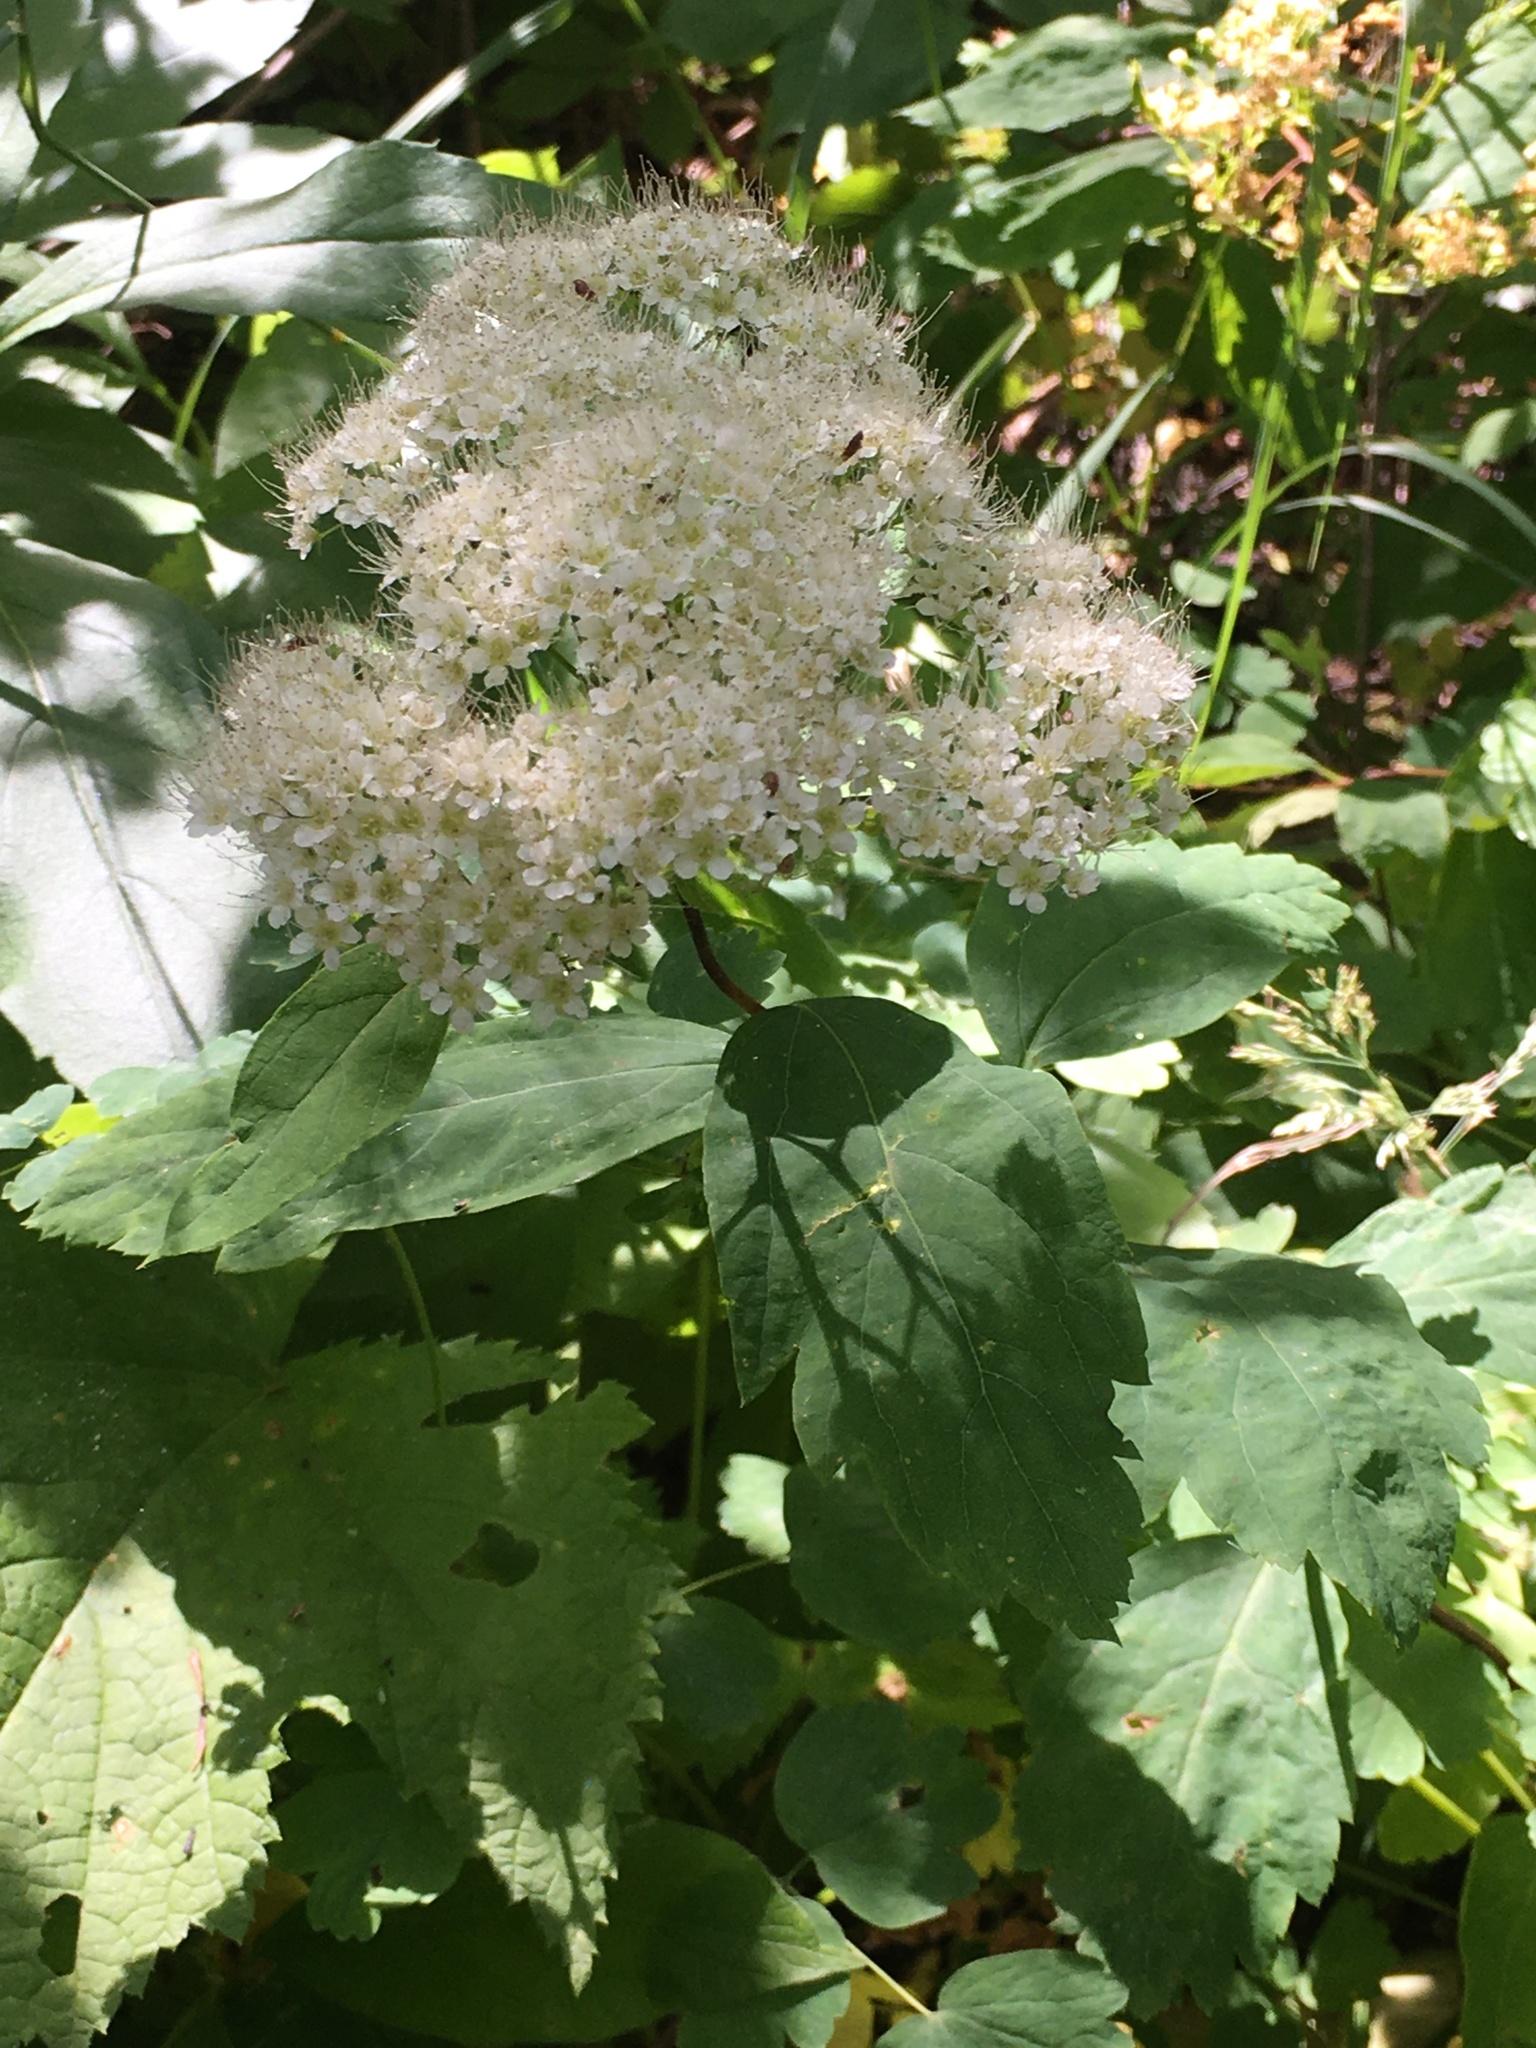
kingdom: Plantae
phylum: Tracheophyta
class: Magnoliopsida
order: Rosales
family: Rosaceae
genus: Spiraea
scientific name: Spiraea lucida
